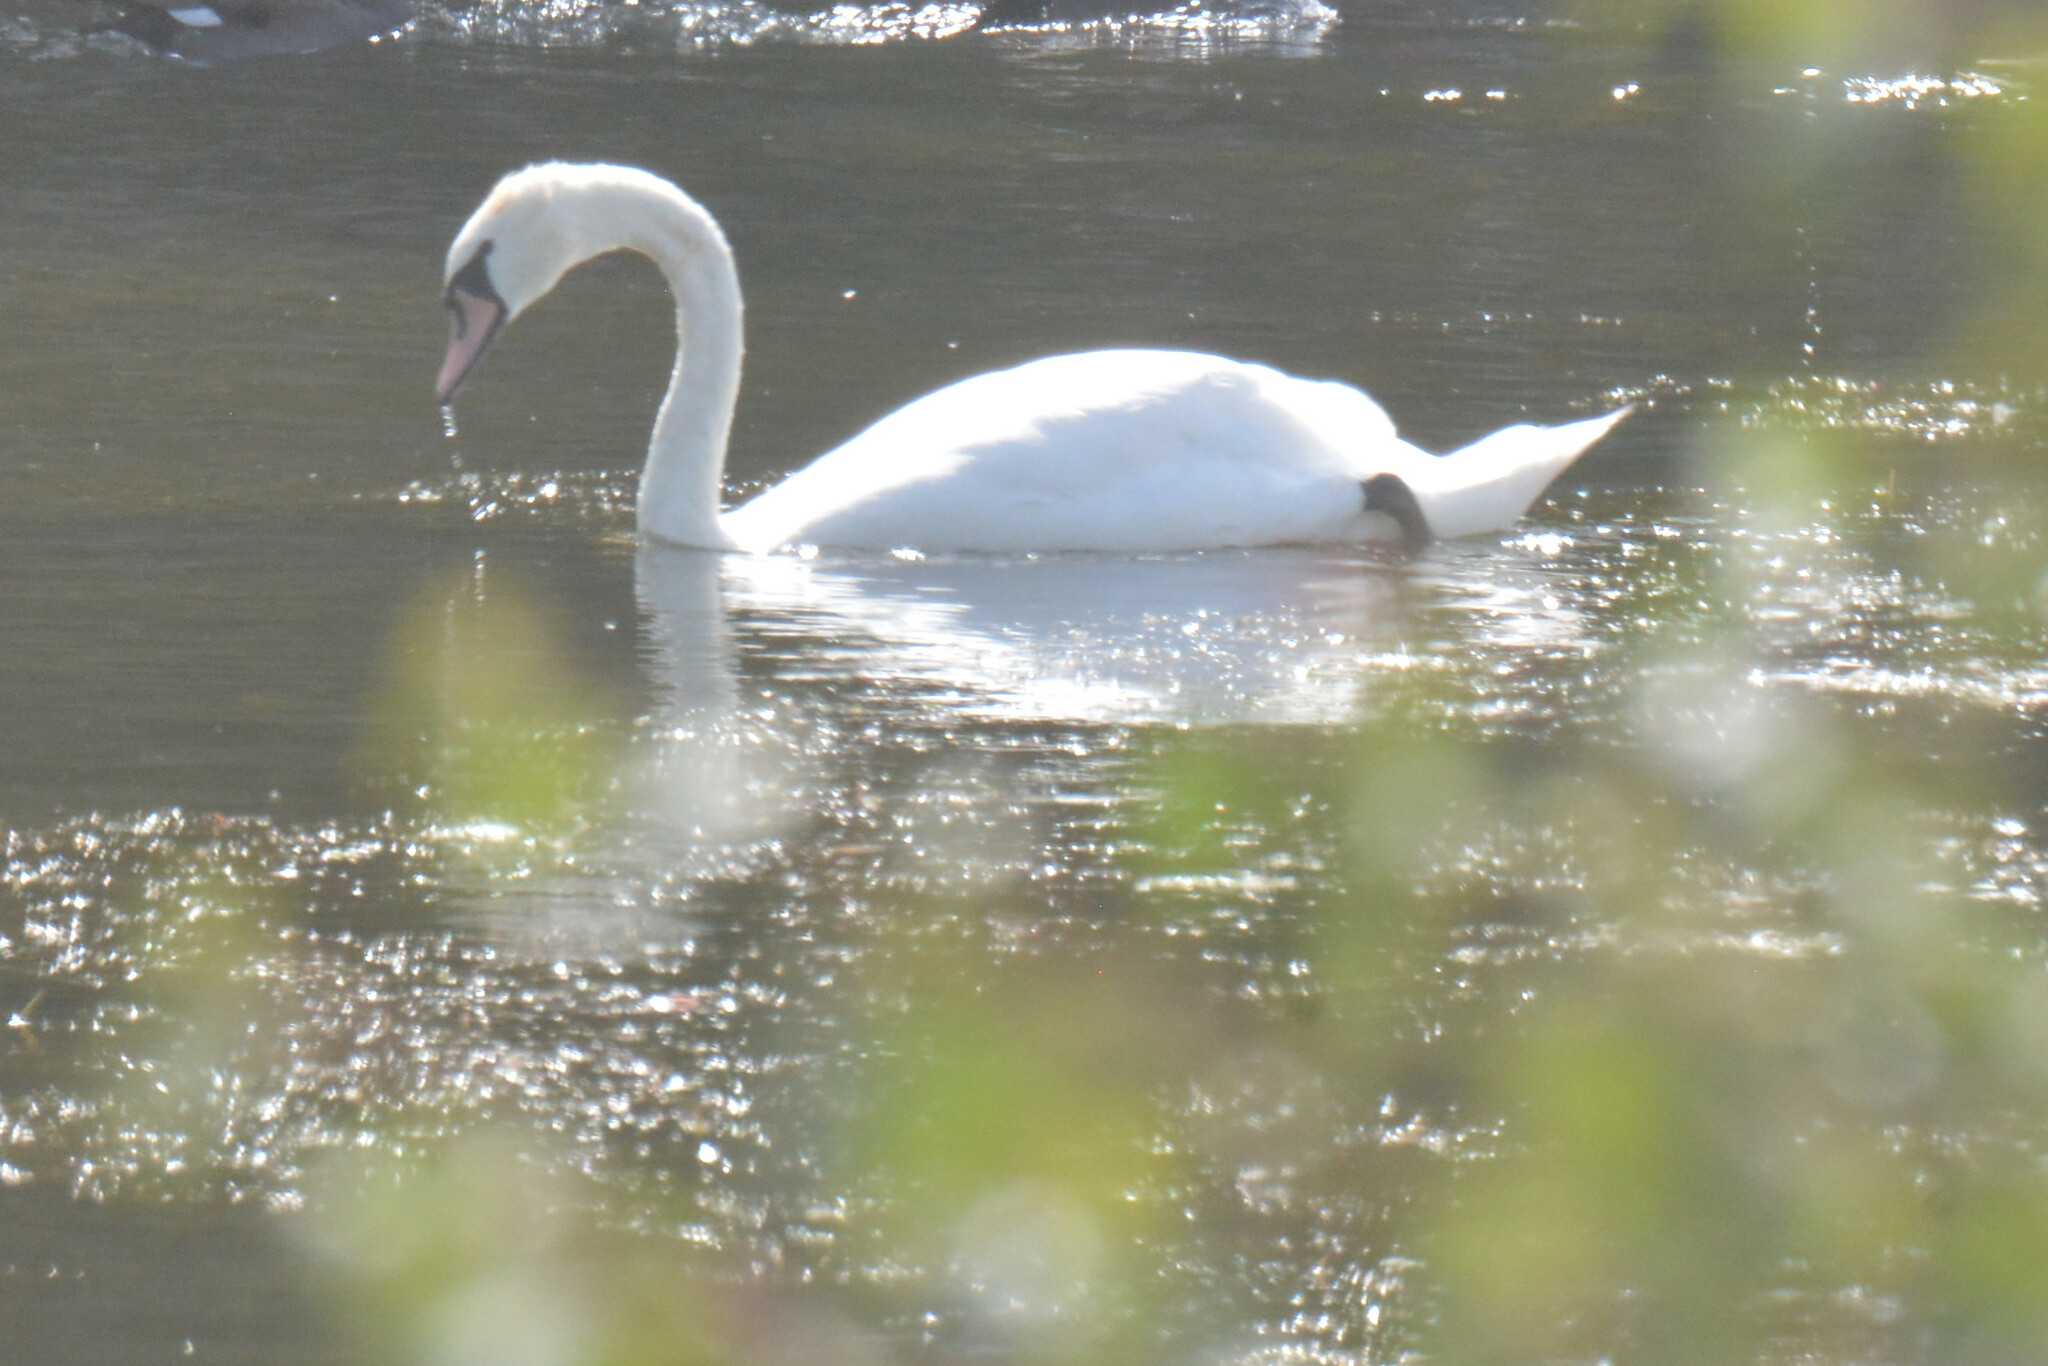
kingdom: Animalia
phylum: Chordata
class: Aves
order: Anseriformes
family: Anatidae
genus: Cygnus
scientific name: Cygnus olor
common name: Mute swan
